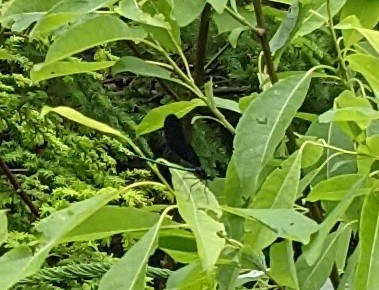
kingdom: Animalia
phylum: Arthropoda
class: Insecta
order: Odonata
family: Calopterygidae
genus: Calopteryx
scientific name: Calopteryx maculata
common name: Ebony jewelwing
